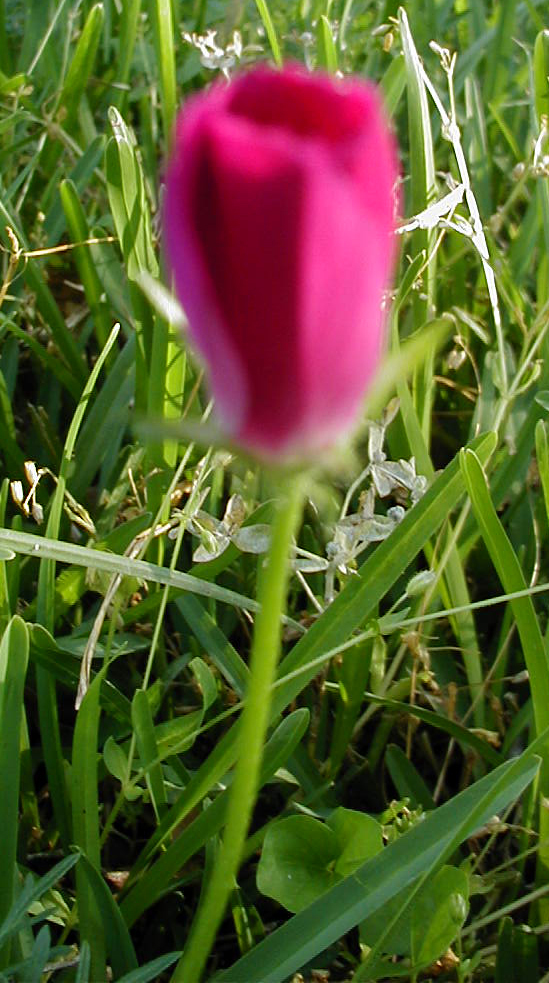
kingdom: Plantae
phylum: Tracheophyta
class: Magnoliopsida
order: Malvales
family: Malvaceae
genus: Callirhoe
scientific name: Callirhoe involucrata
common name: Purple poppy-mallow
